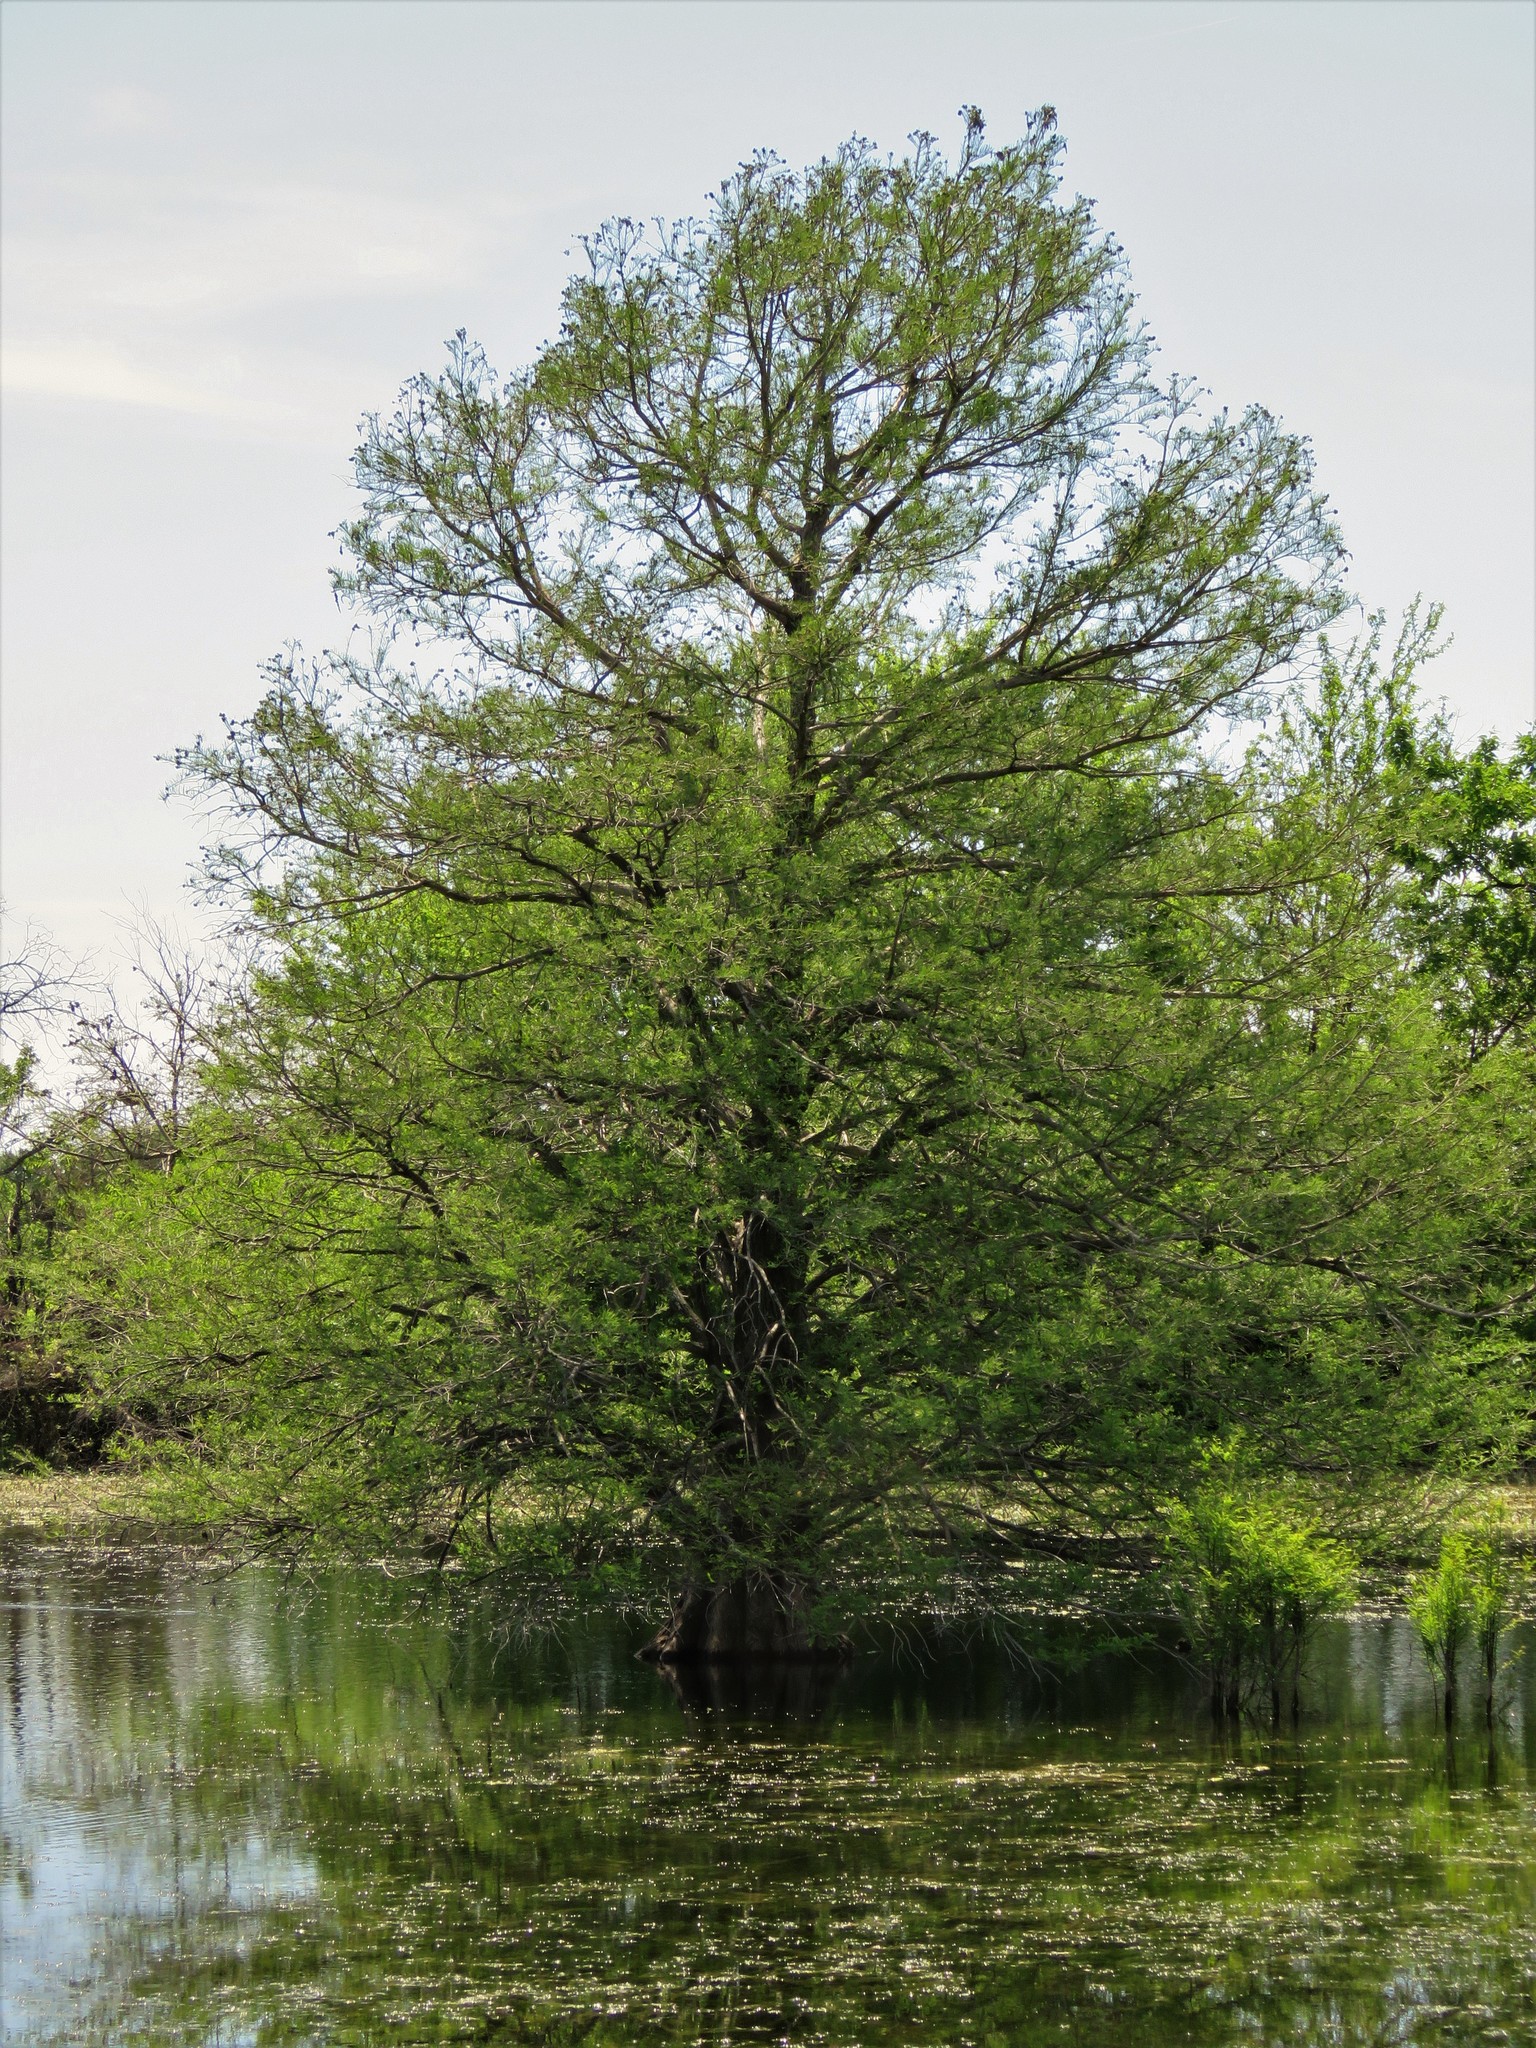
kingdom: Plantae
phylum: Tracheophyta
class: Pinopsida
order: Pinales
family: Cupressaceae
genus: Taxodium
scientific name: Taxodium distichum
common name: Bald cypress
